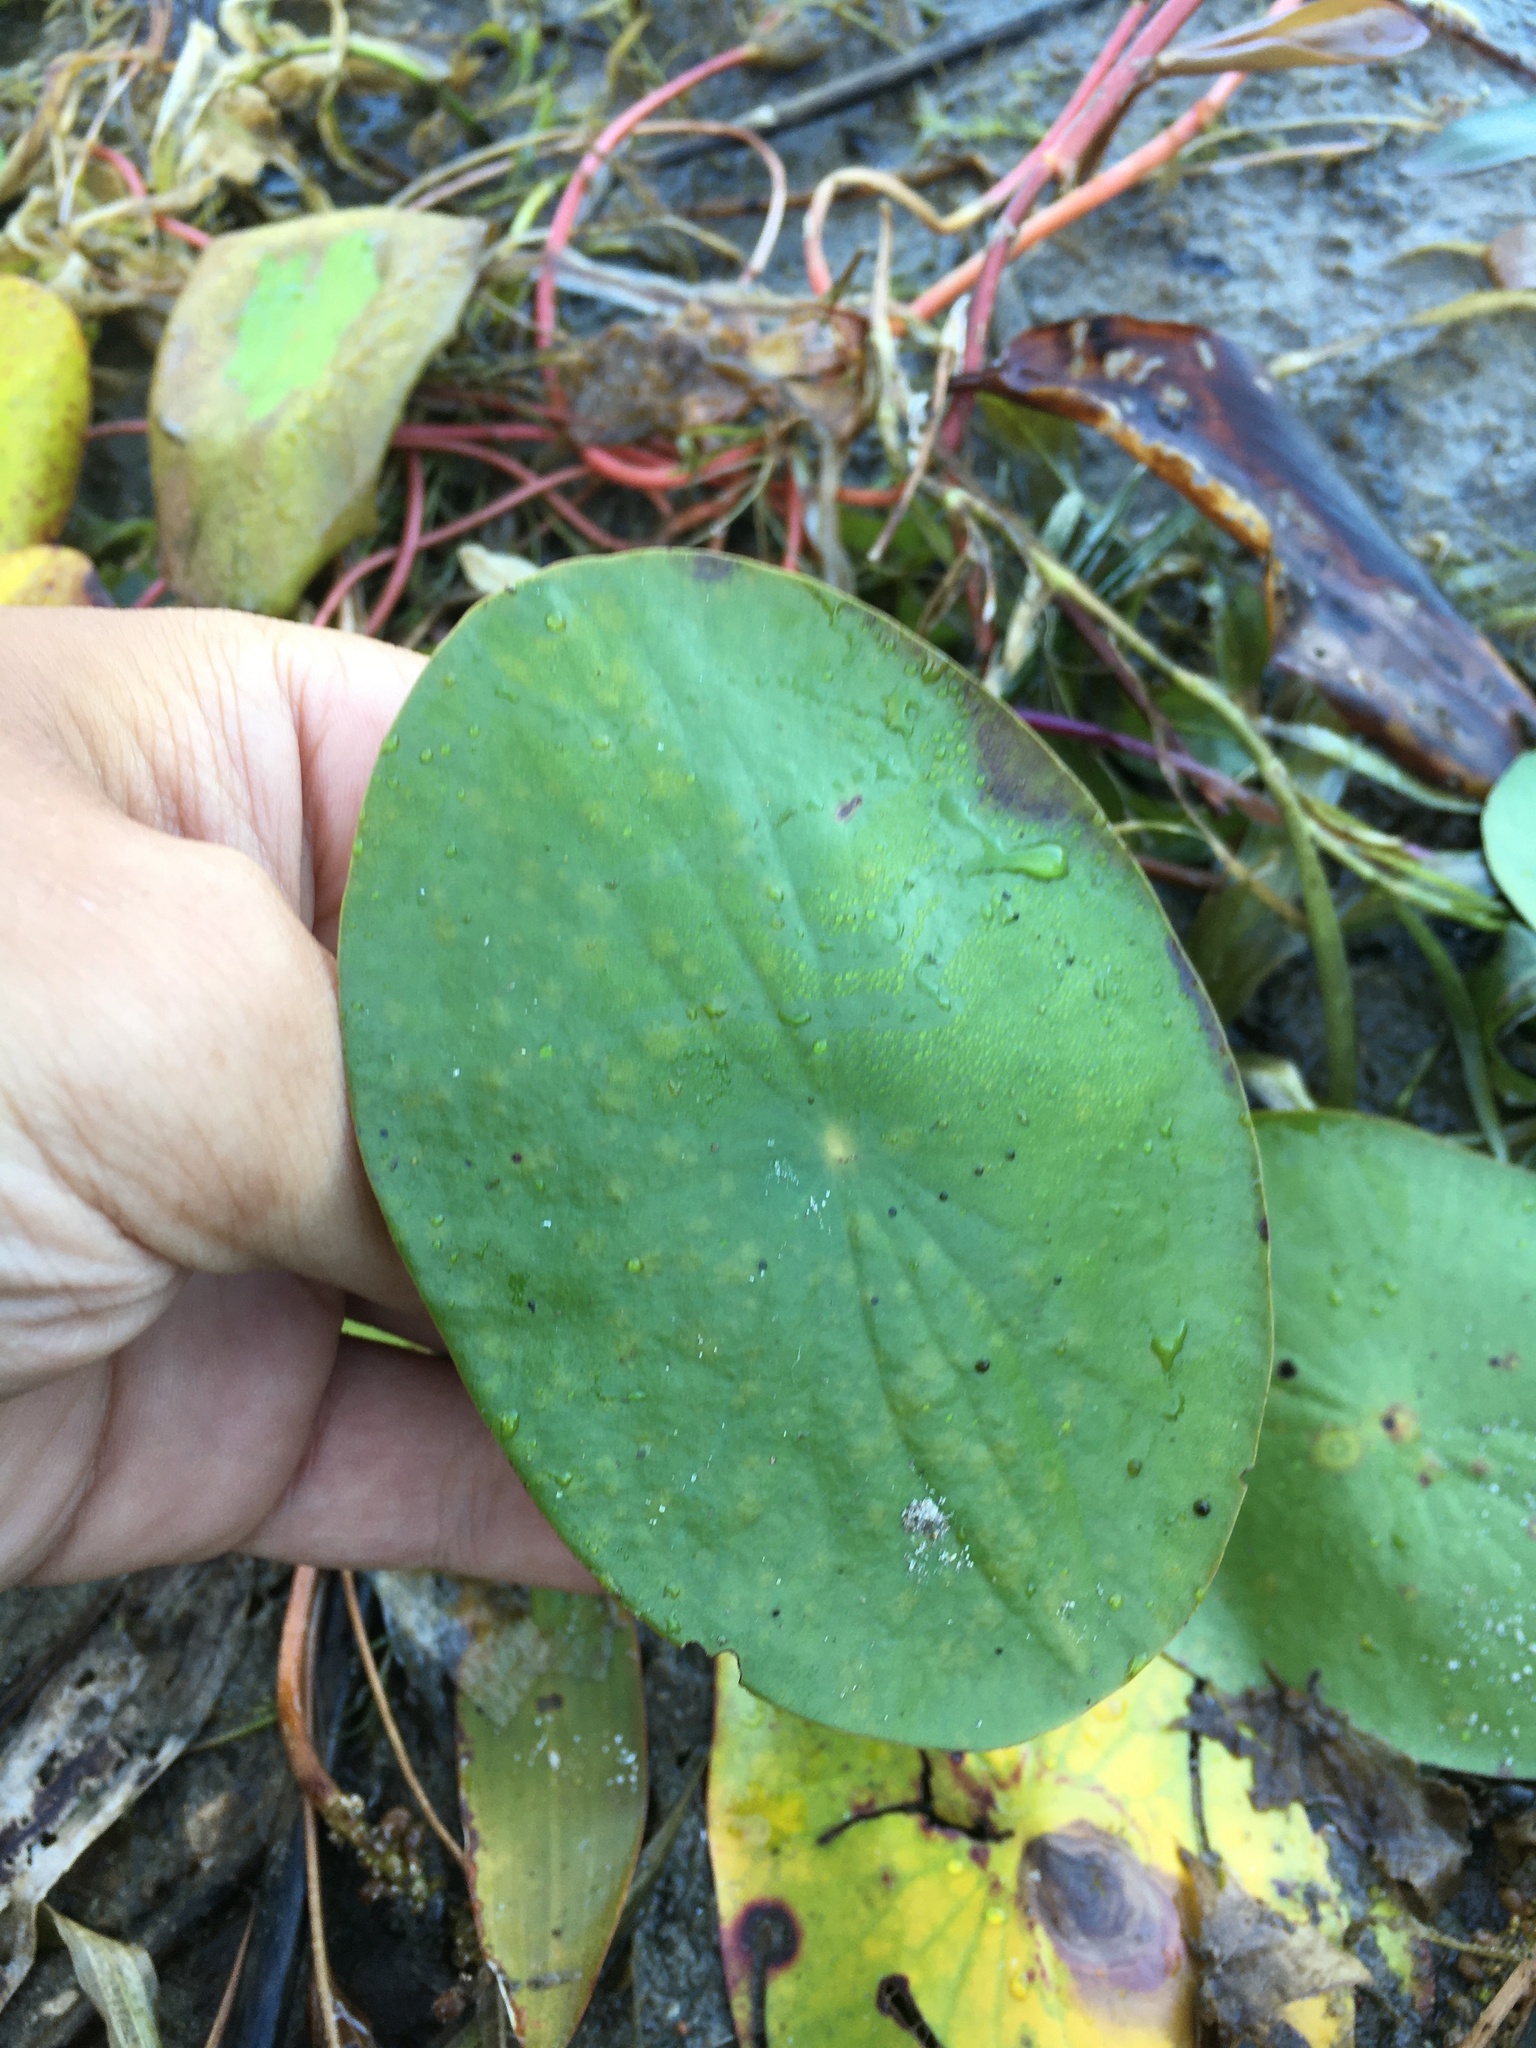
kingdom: Plantae
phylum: Tracheophyta
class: Magnoliopsida
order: Nymphaeales
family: Cabombaceae
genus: Brasenia
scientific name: Brasenia schreberi
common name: Water-shield
